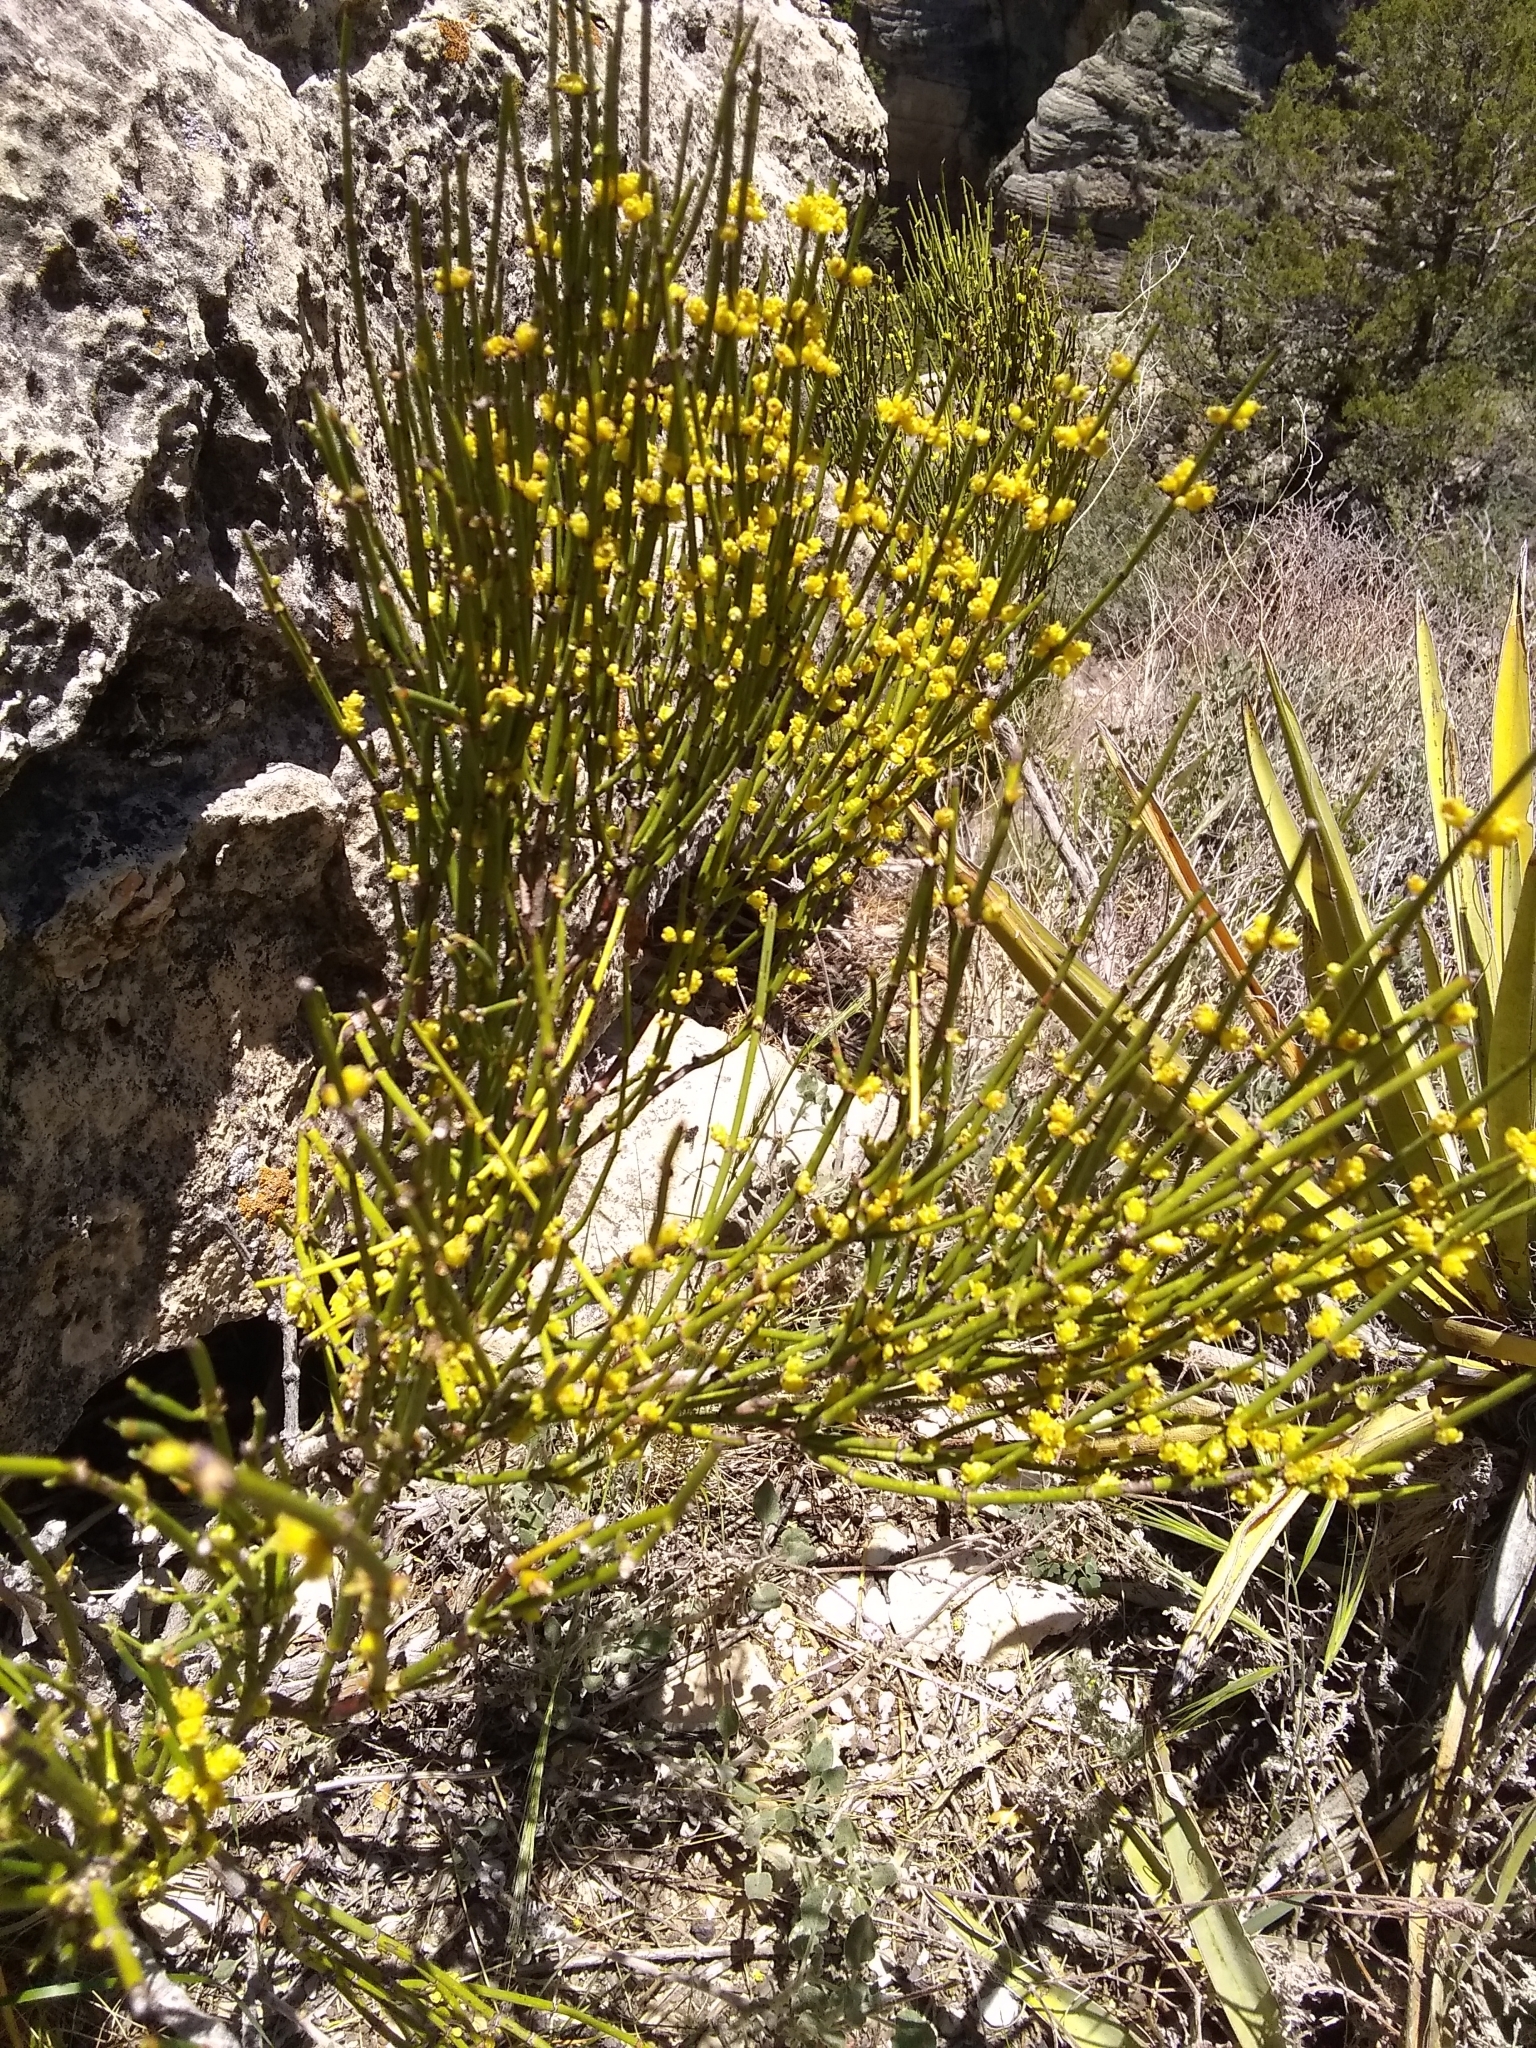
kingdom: Plantae
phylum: Tracheophyta
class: Gnetopsida
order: Ephedrales
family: Ephedraceae
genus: Ephedra
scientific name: Ephedra viridis
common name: Green ephedra
